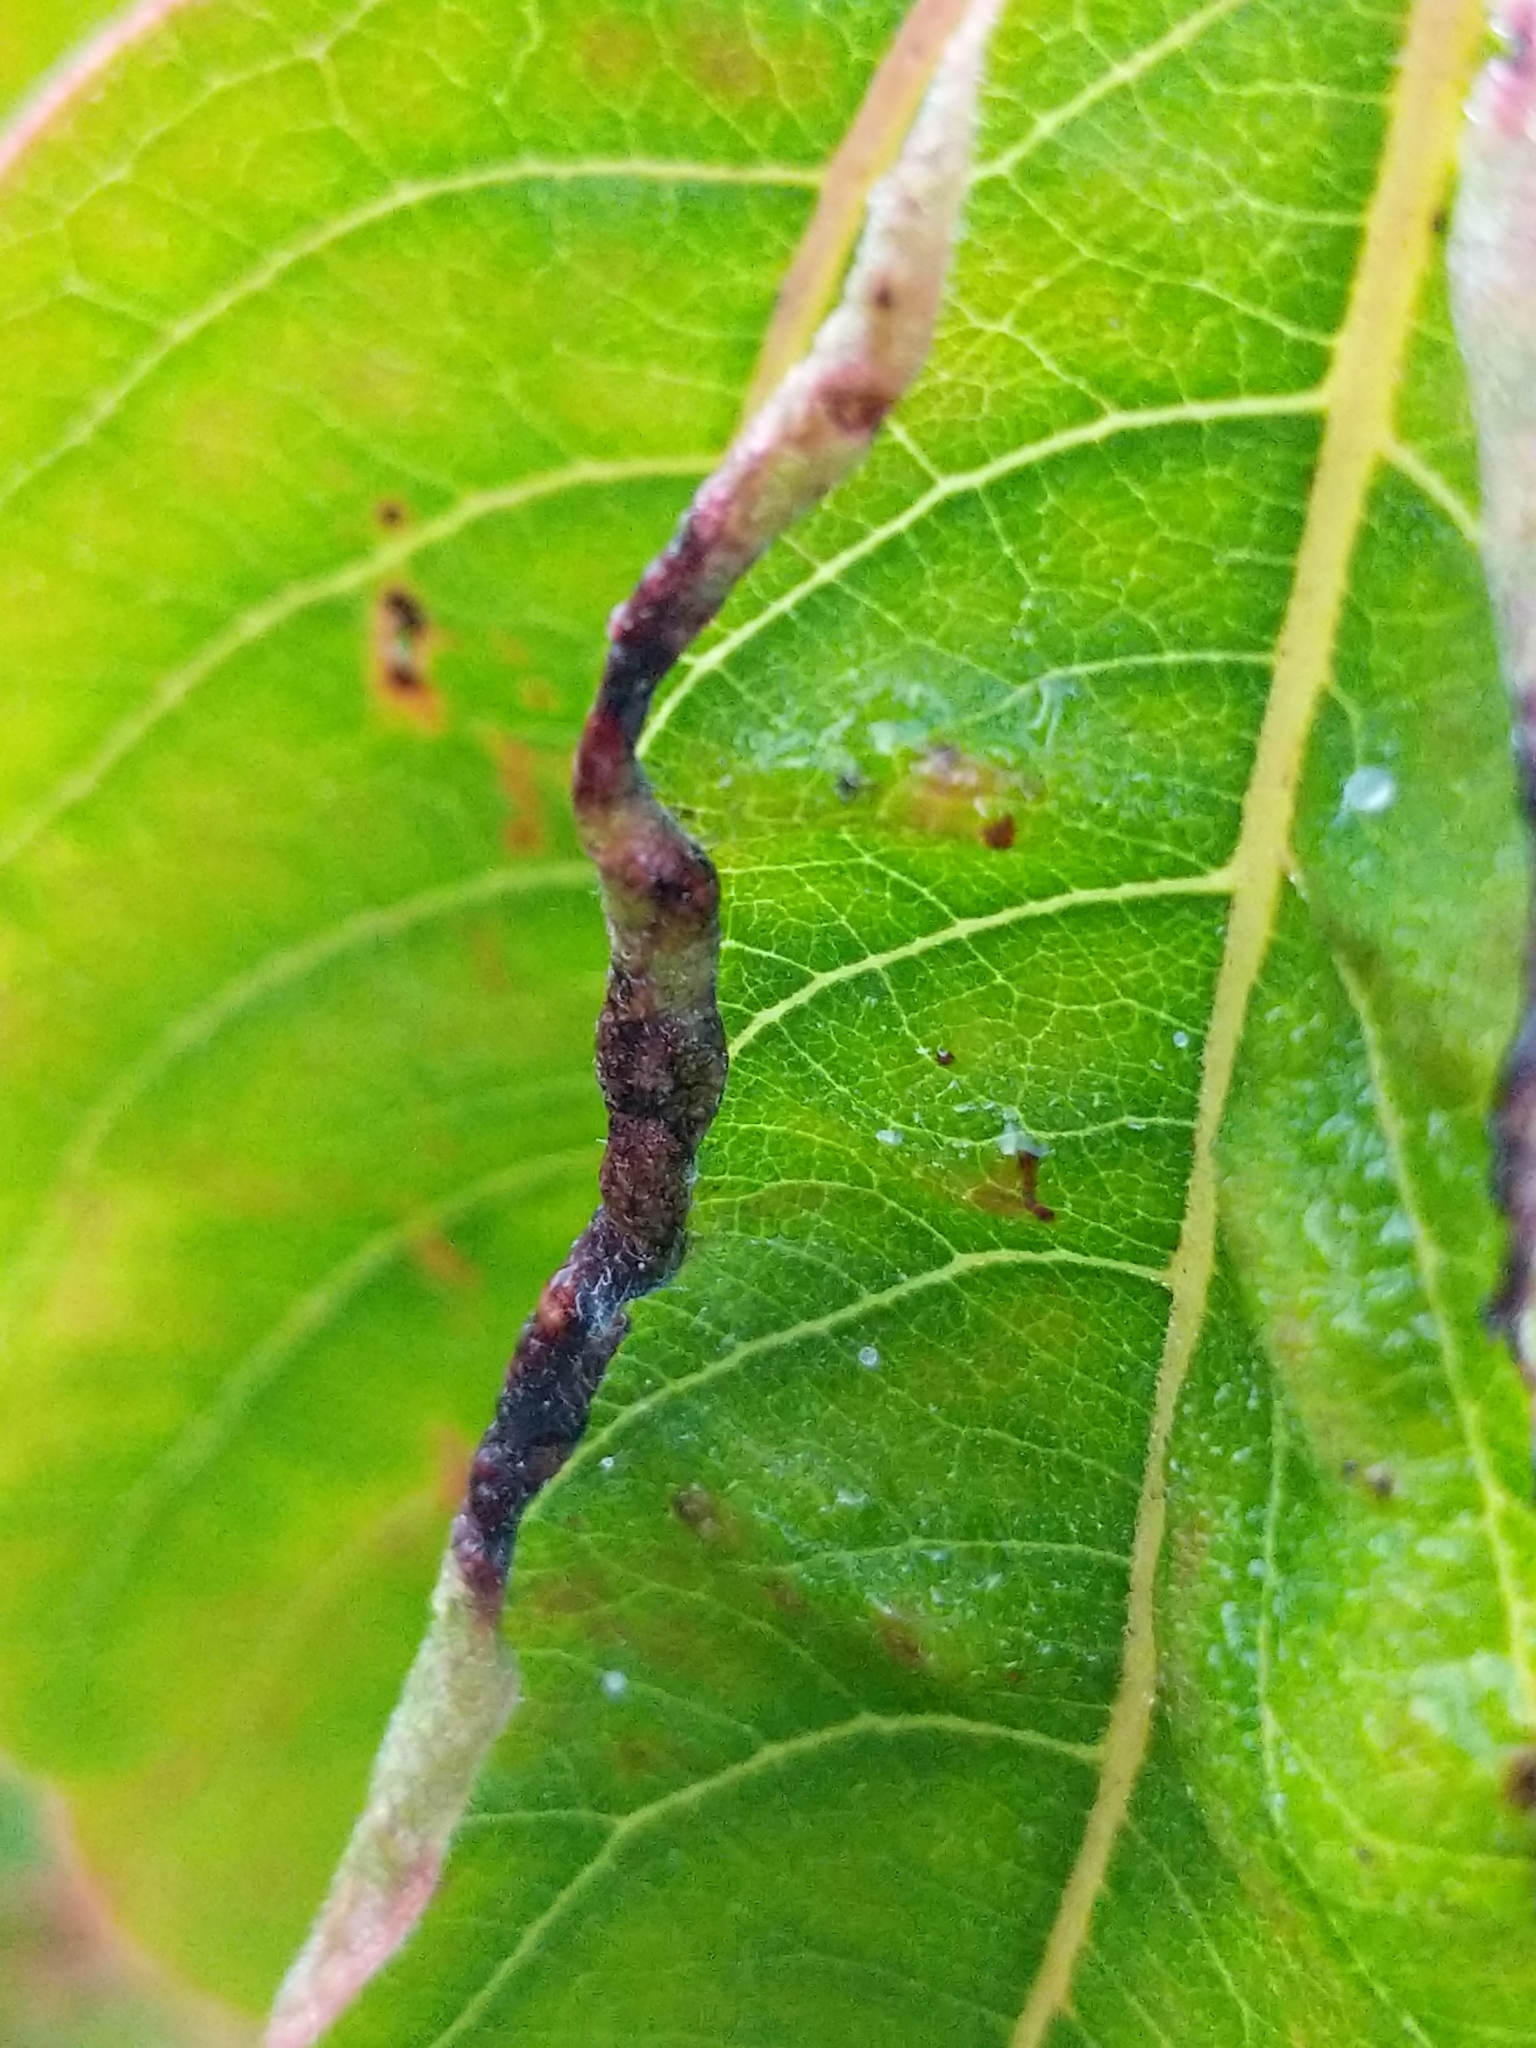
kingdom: Plantae
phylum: Tracheophyta
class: Magnoliopsida
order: Ericales
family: Ebenaceae
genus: Diospyros
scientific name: Diospyros virginiana
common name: Persimmon
